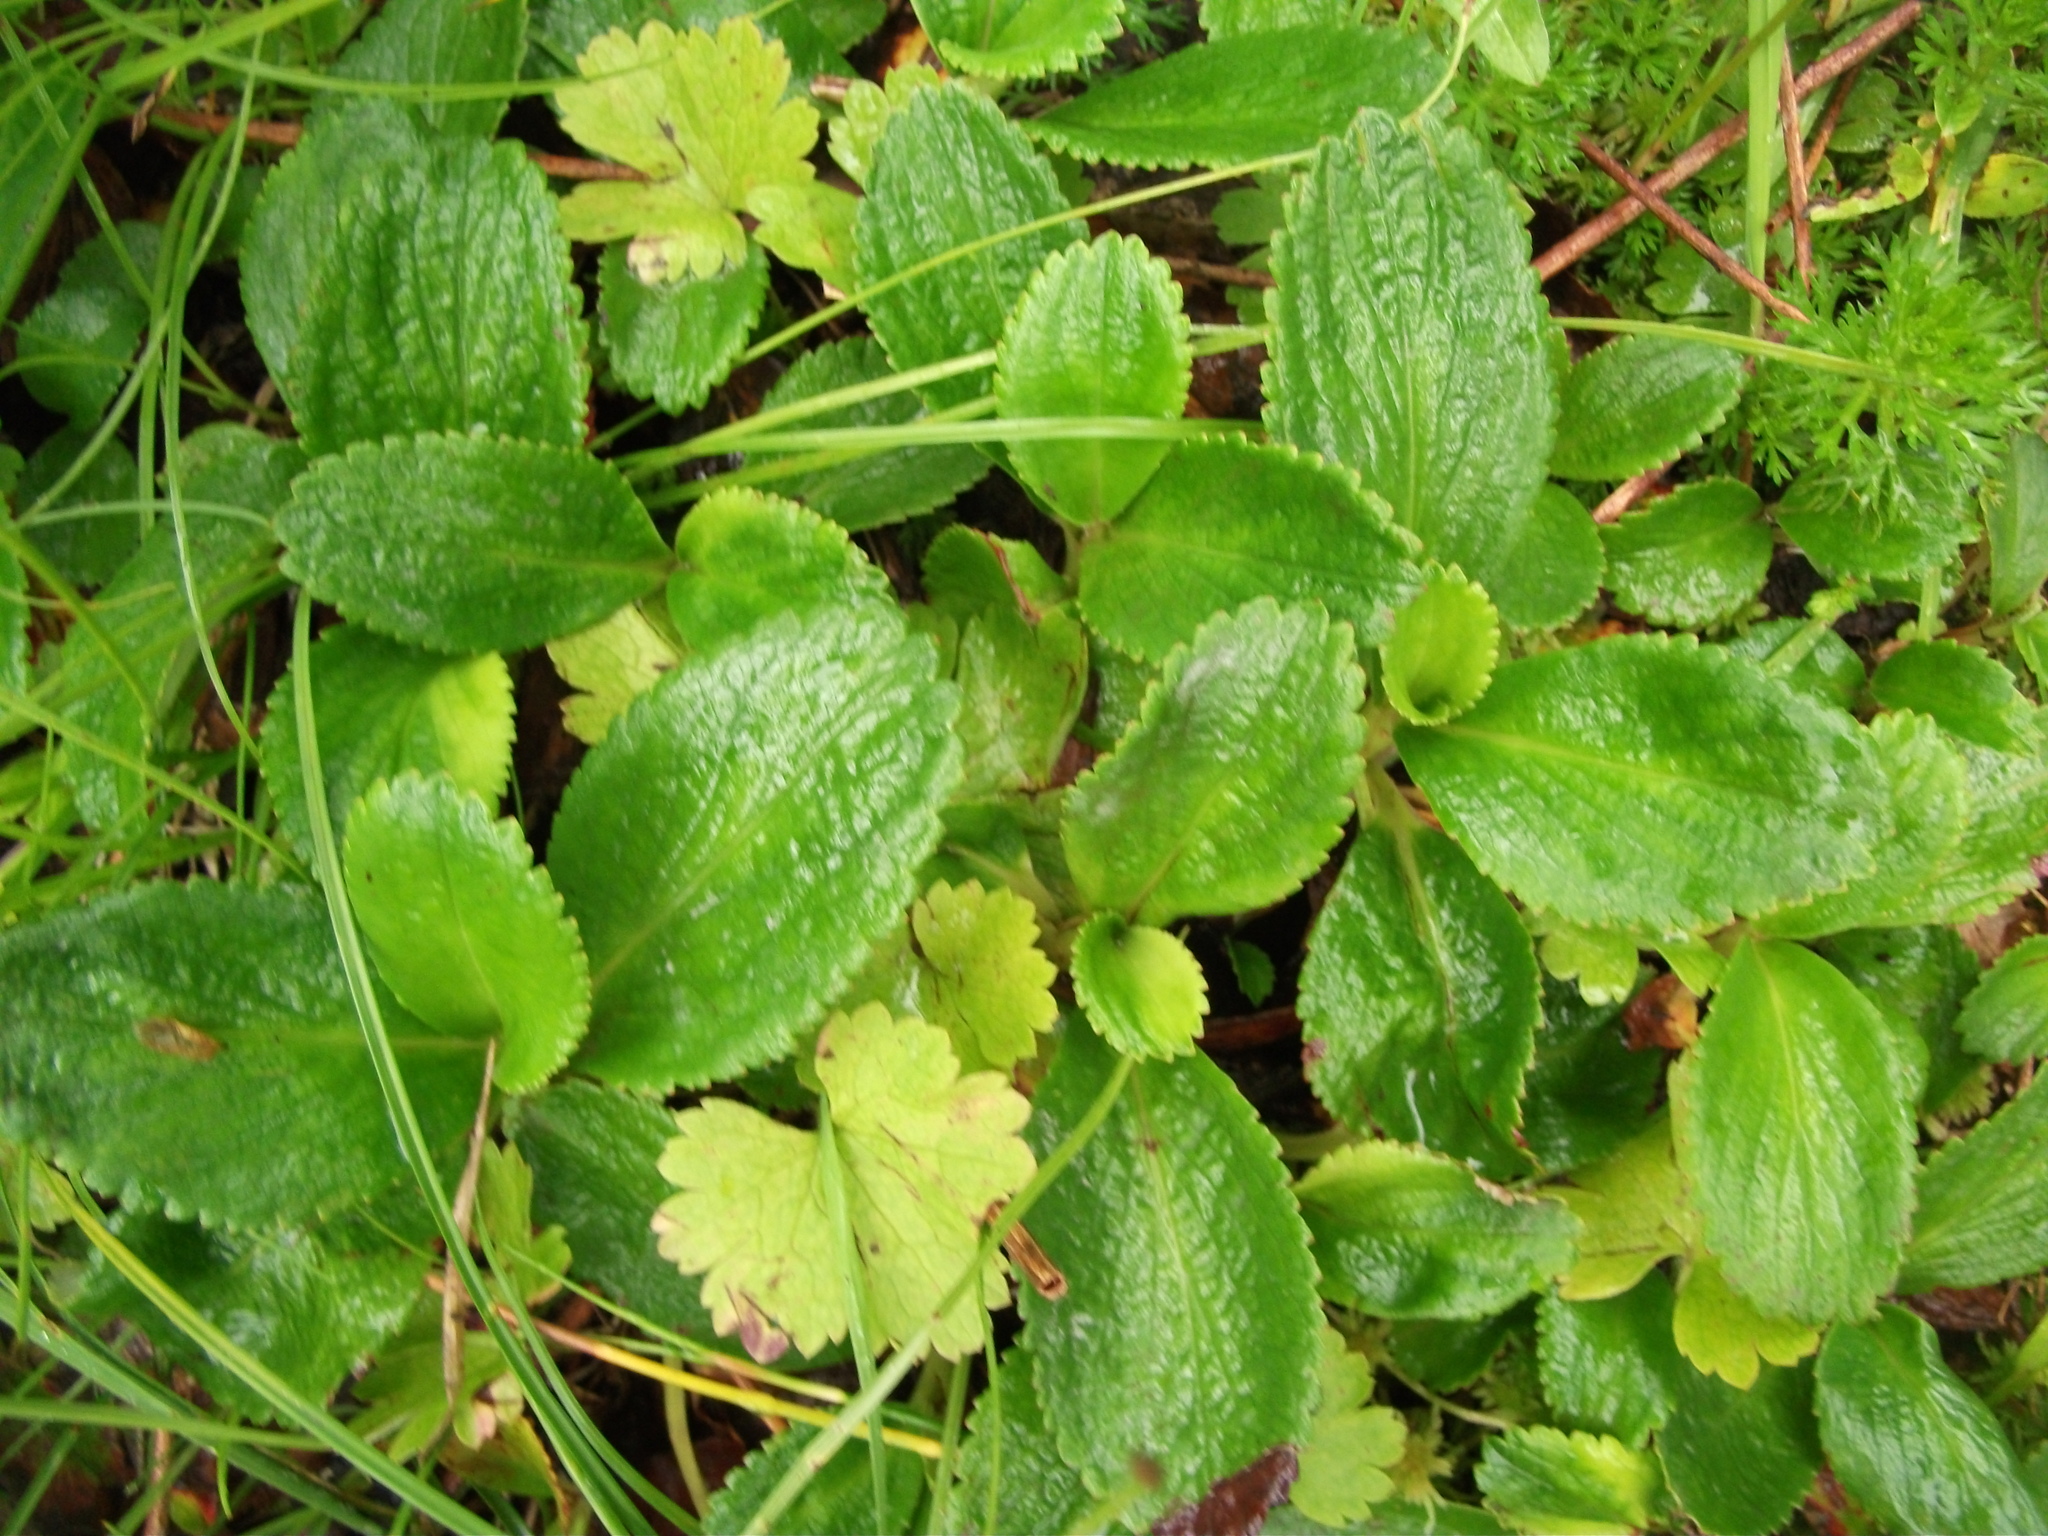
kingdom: Plantae
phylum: Tracheophyta
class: Magnoliopsida
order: Saxifragales
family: Saxifragaceae
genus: Leptarrhena
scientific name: Leptarrhena pyrolifolia
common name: Leatherleaf-saxifrage
